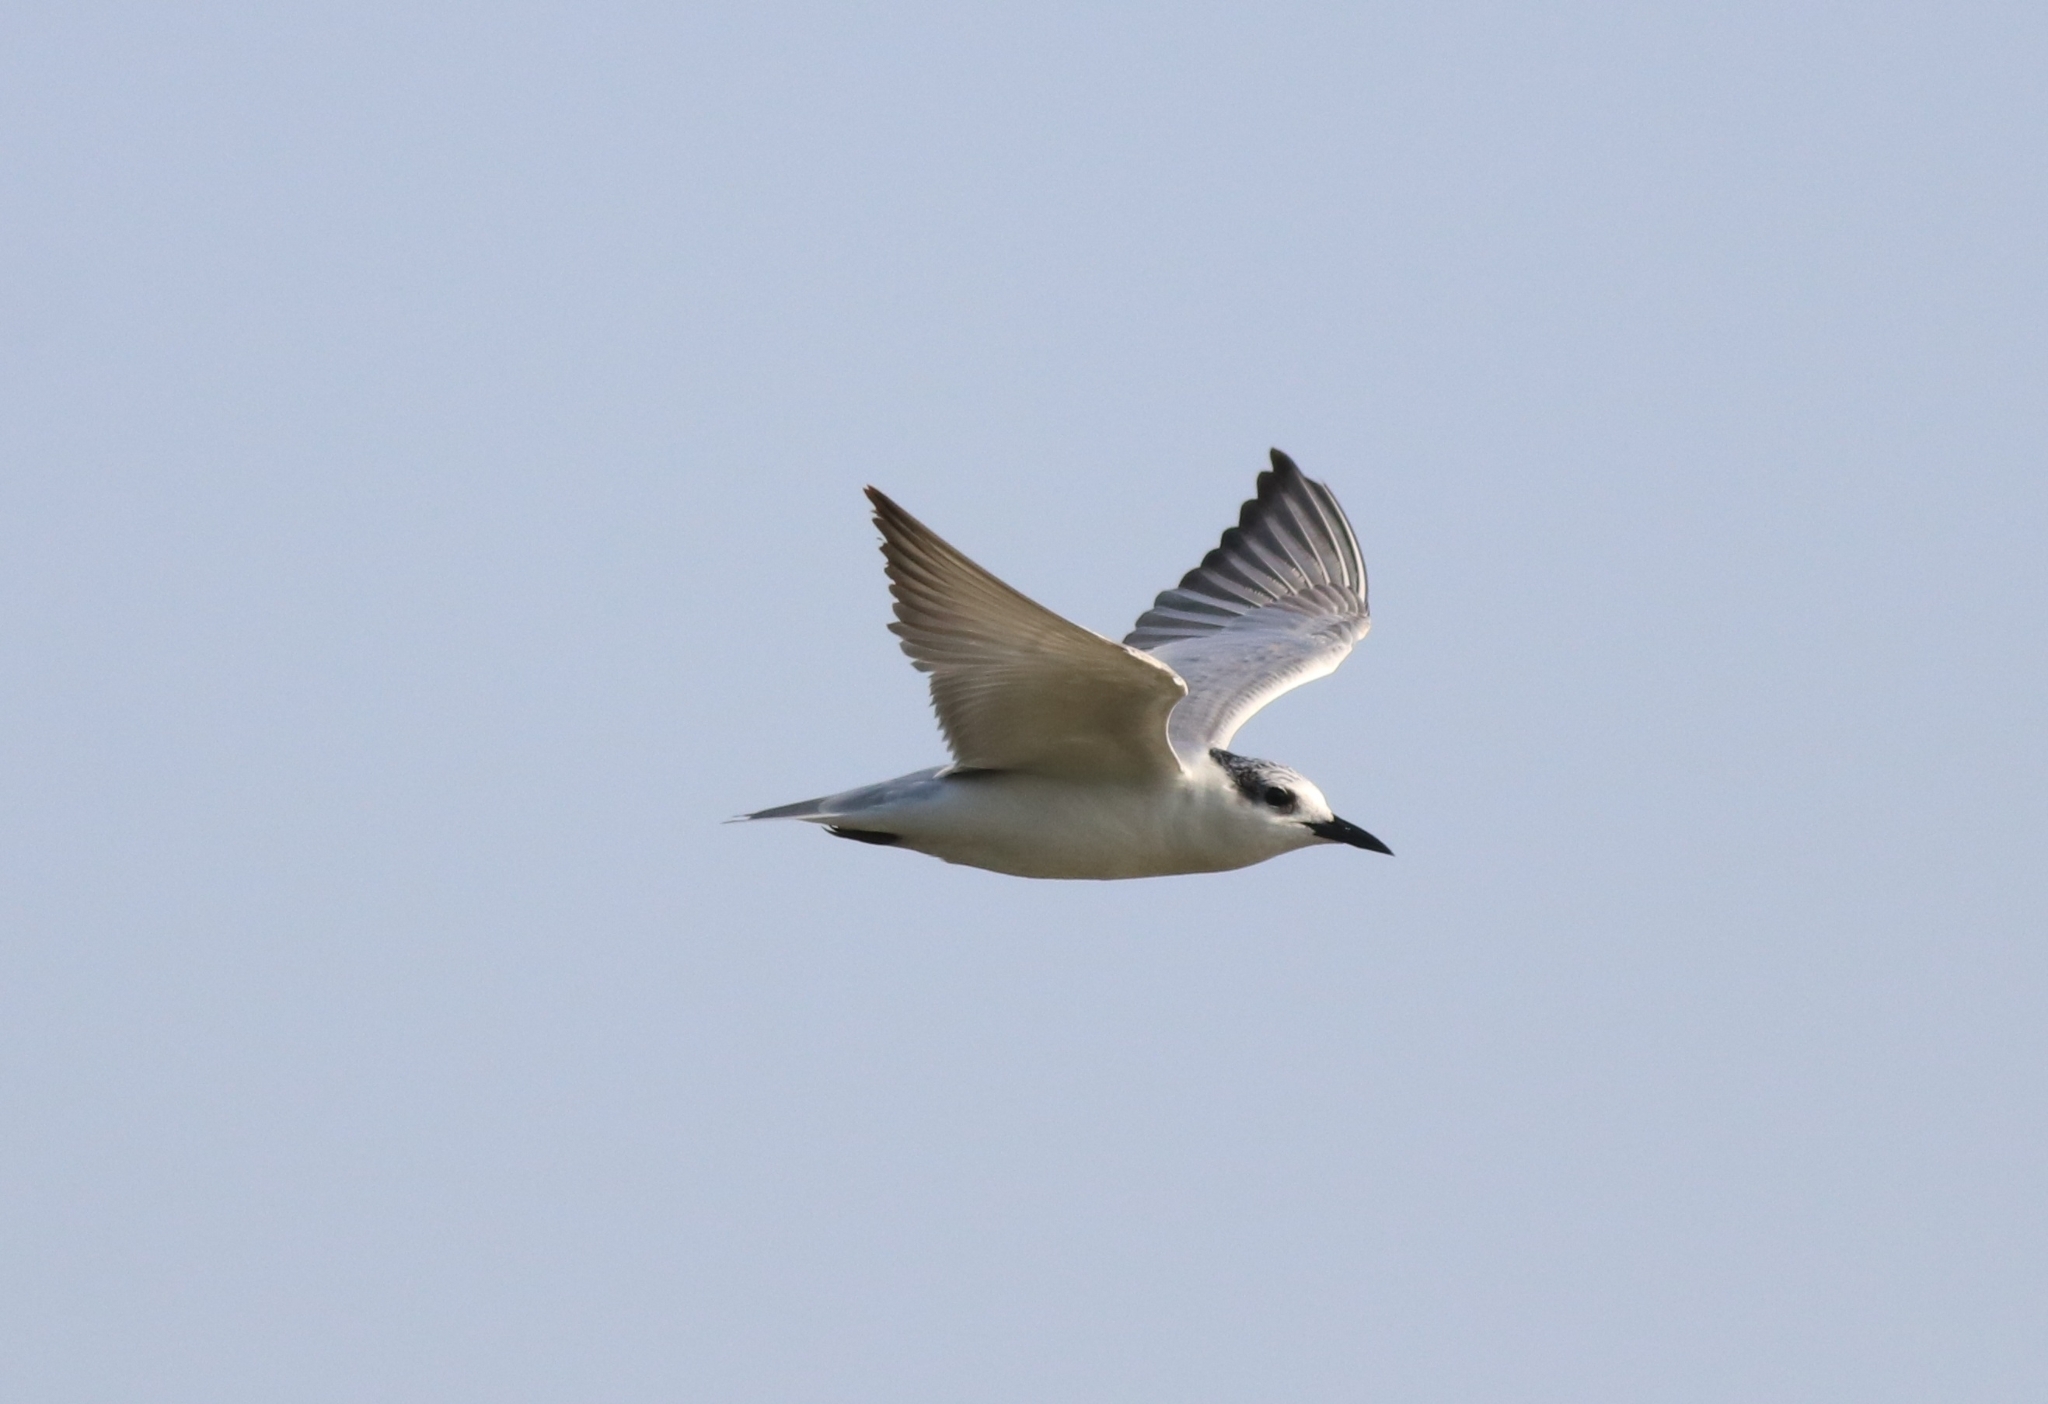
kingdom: Animalia
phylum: Chordata
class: Aves
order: Charadriiformes
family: Laridae
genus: Chlidonias
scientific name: Chlidonias hybrida
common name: Whiskered tern
